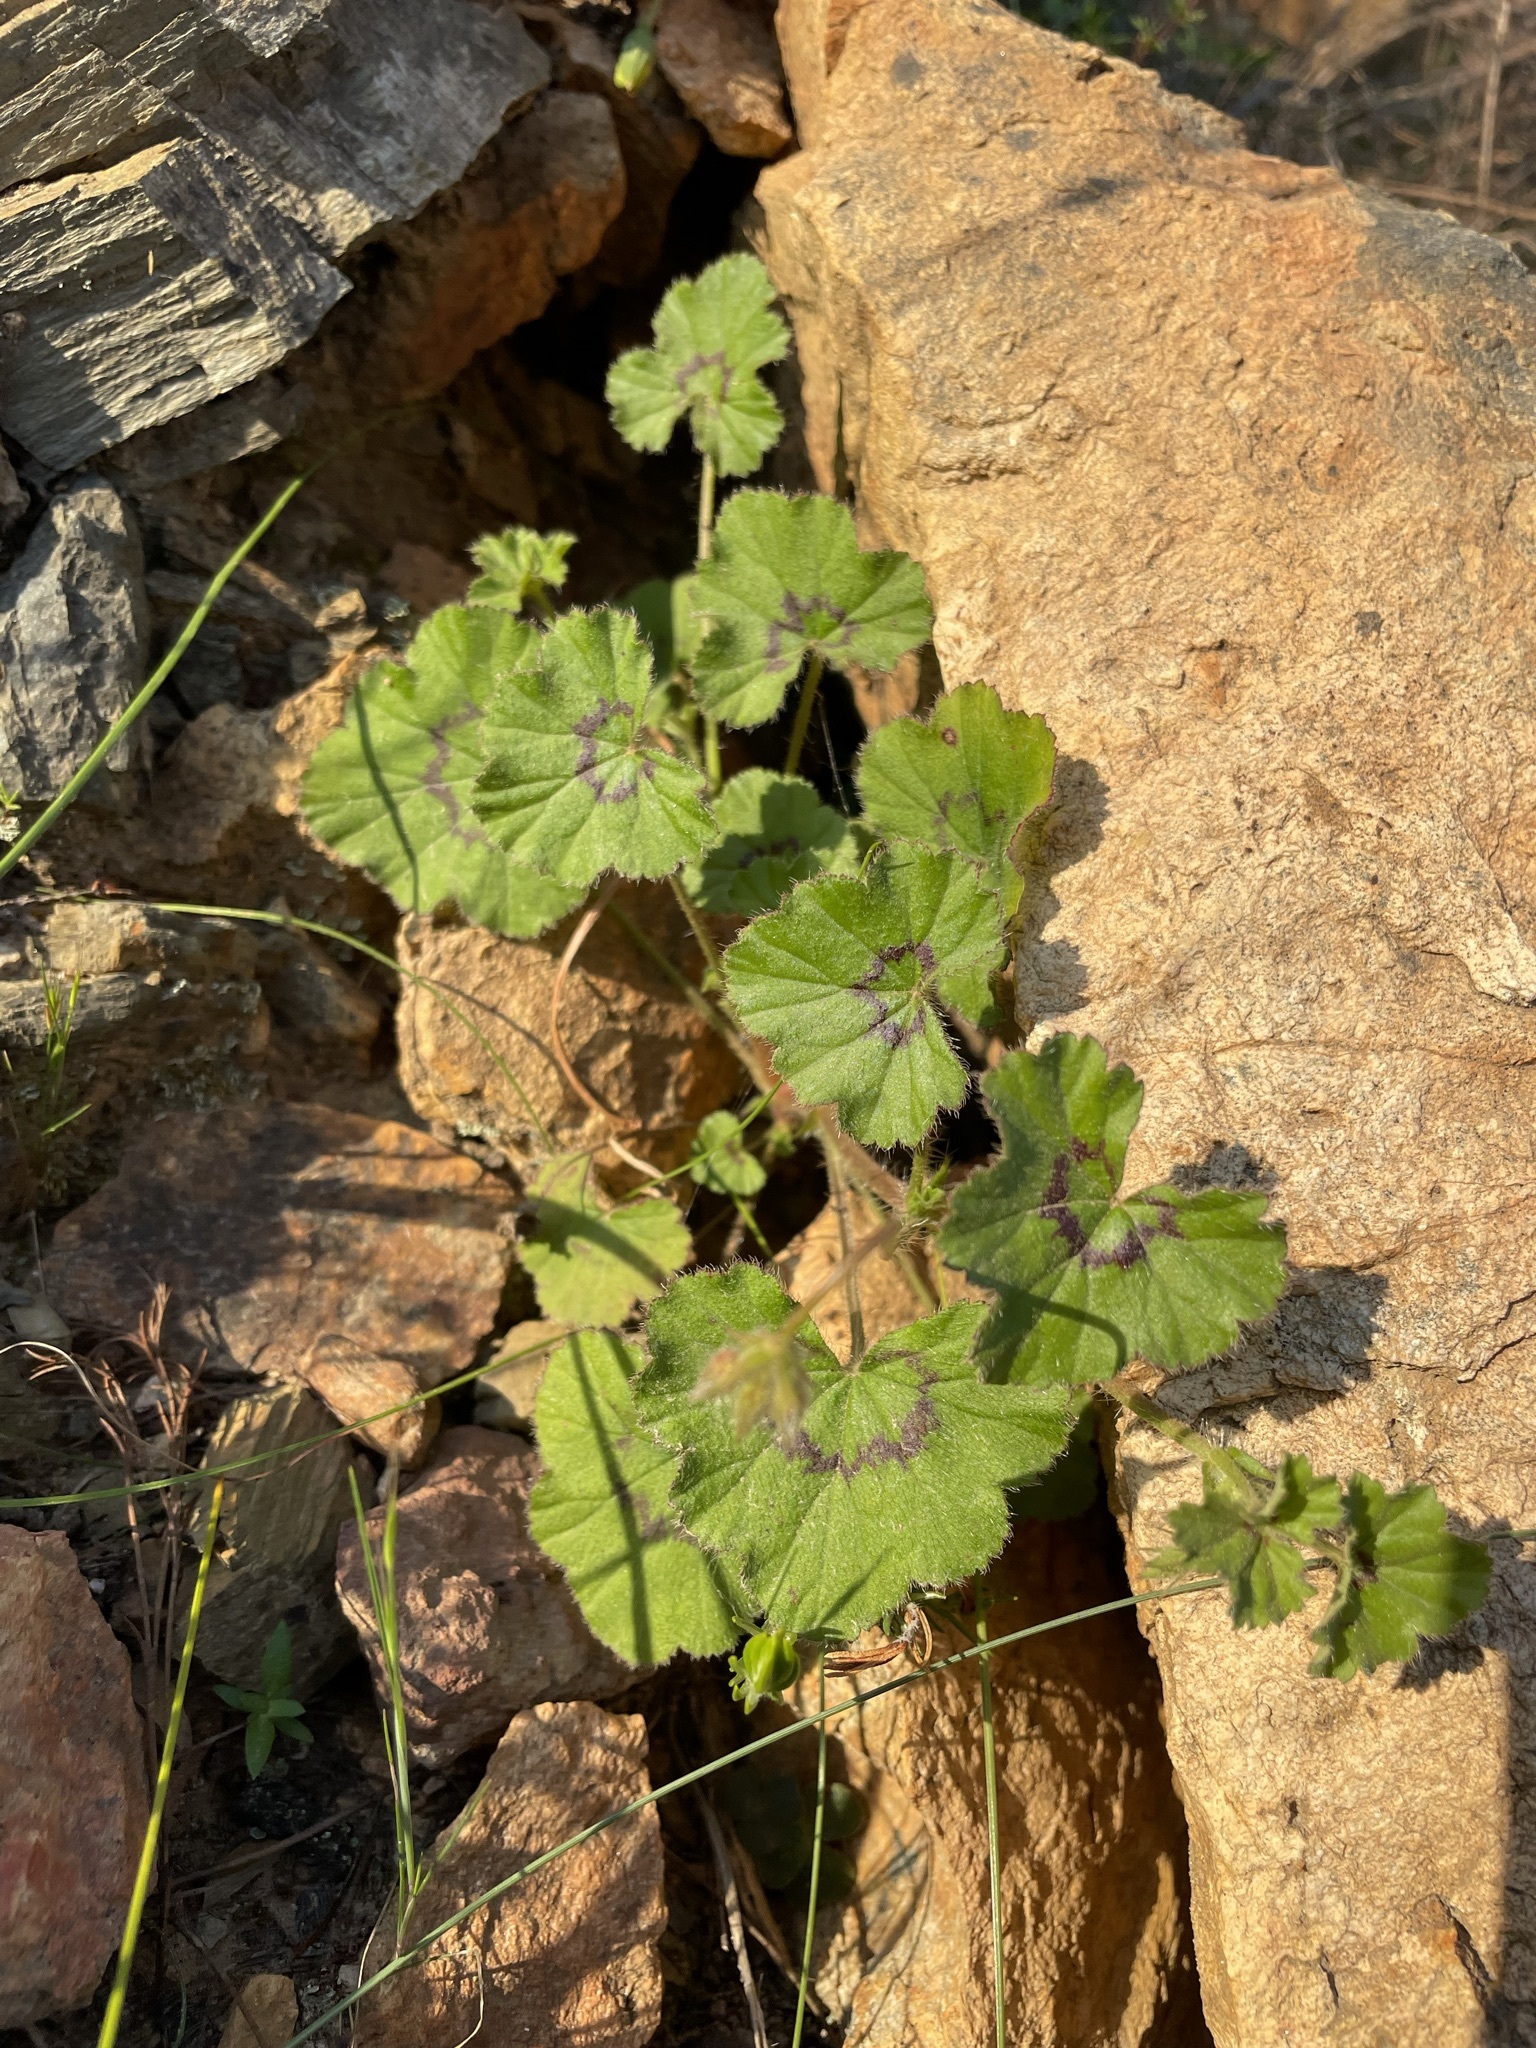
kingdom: Plantae
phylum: Tracheophyta
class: Magnoliopsida
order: Geraniales
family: Geraniaceae
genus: Pelargonium
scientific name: Pelargonium elongatum
